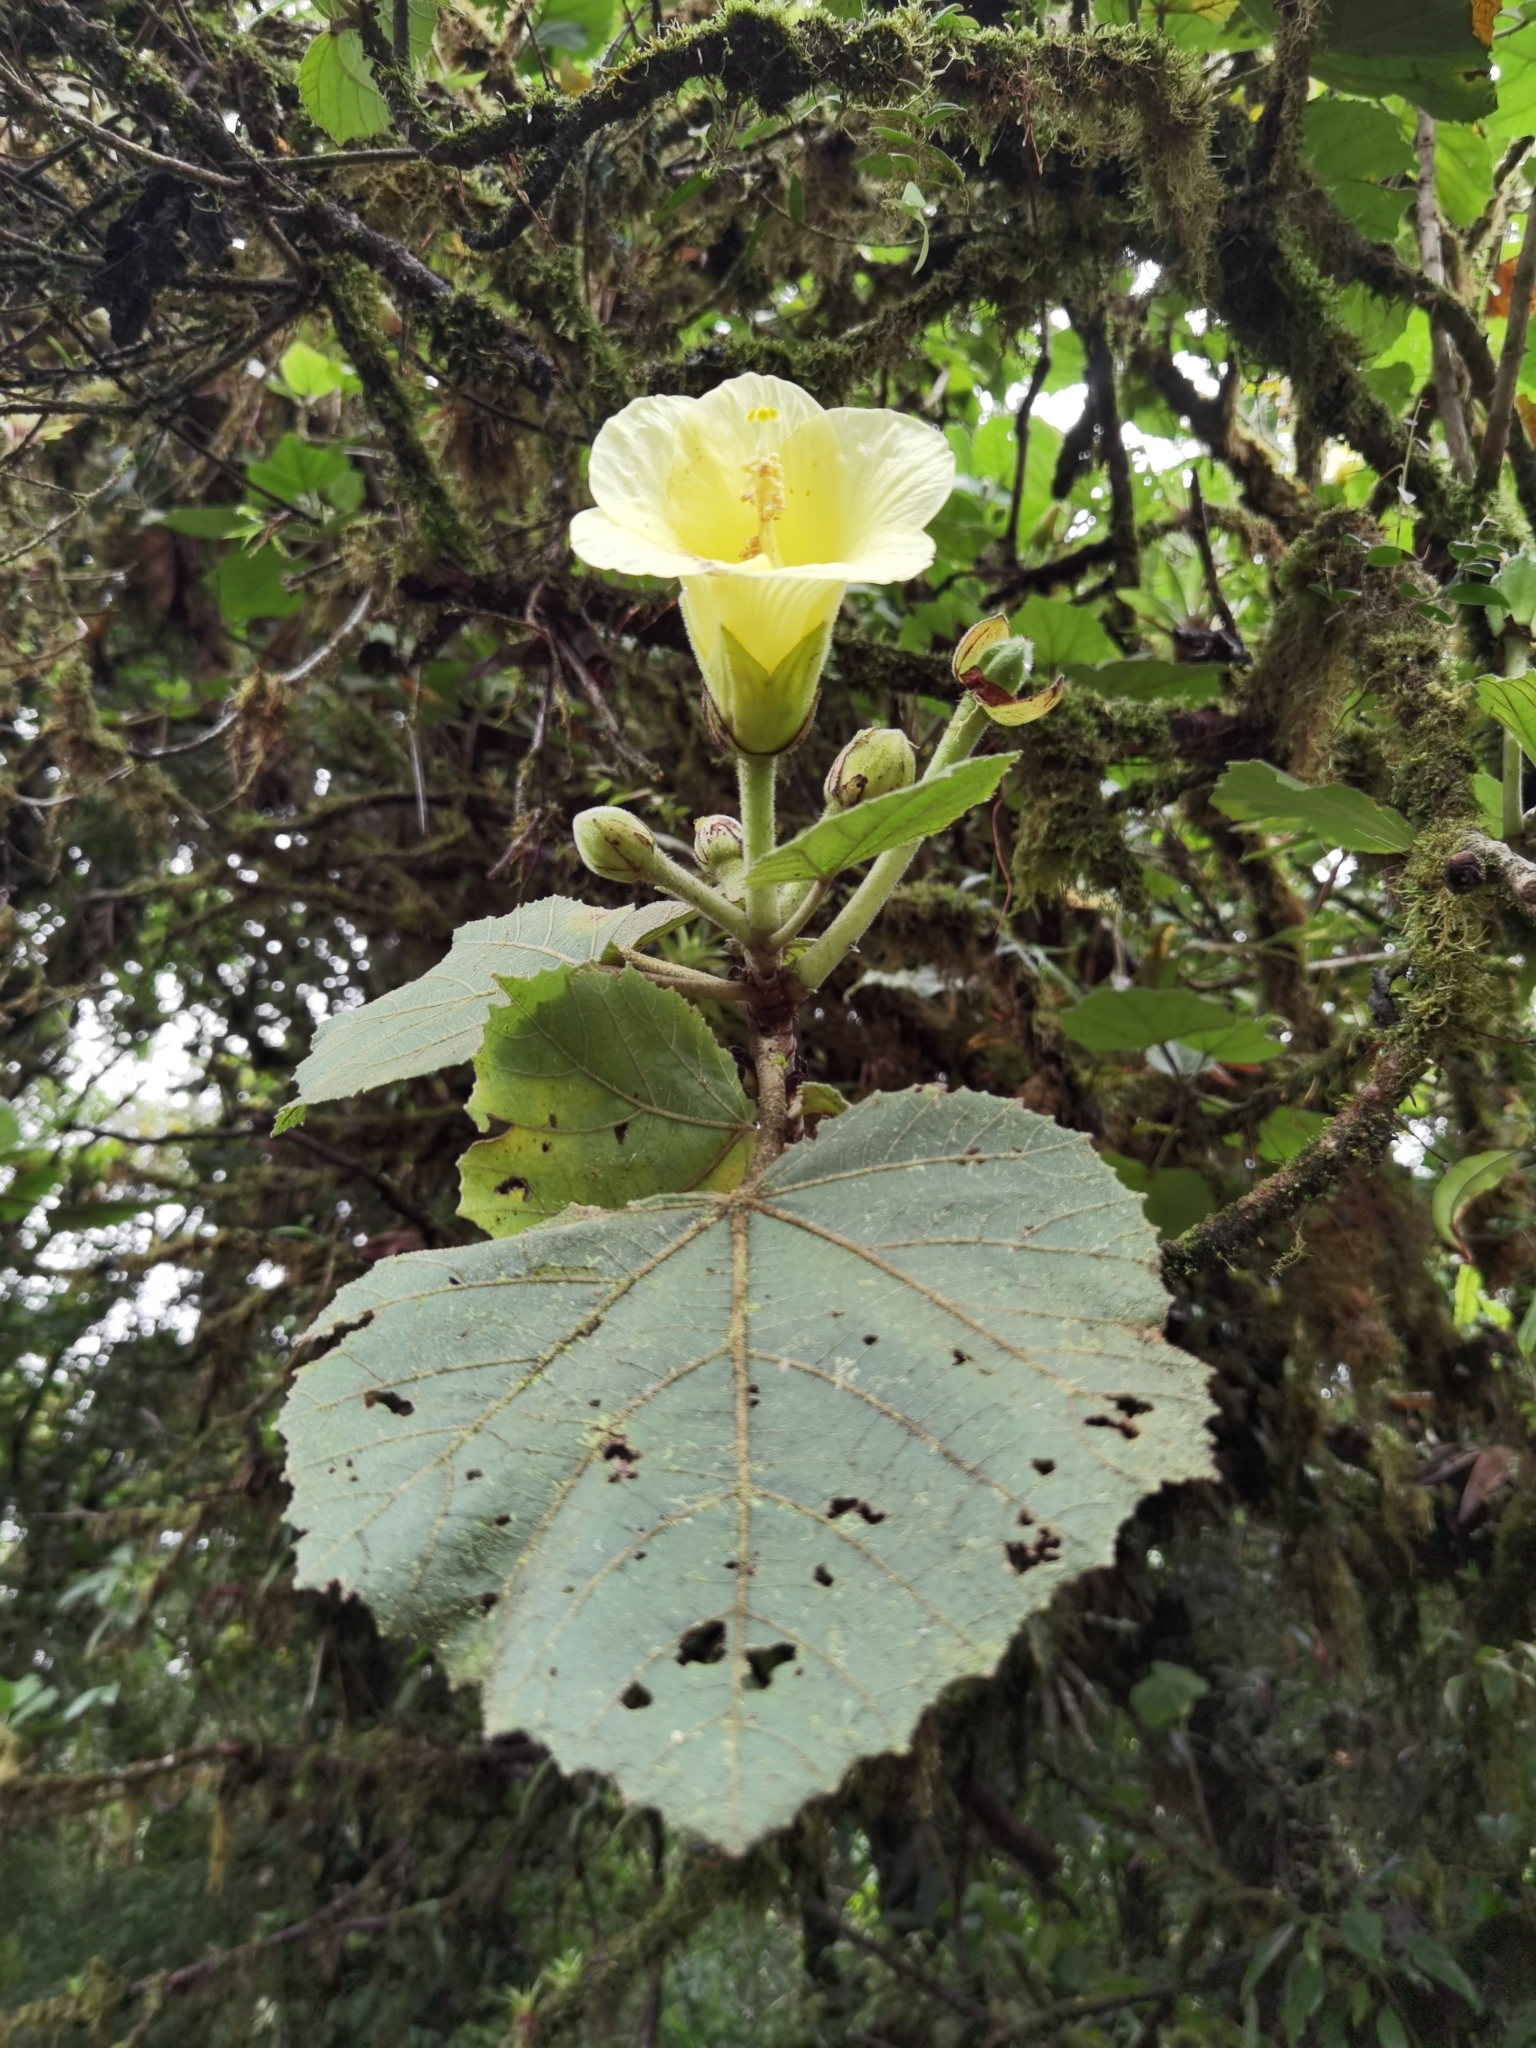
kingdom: Plantae
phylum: Tracheophyta
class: Magnoliopsida
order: Malvales
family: Malvaceae
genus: Wercklea
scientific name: Wercklea lutea
